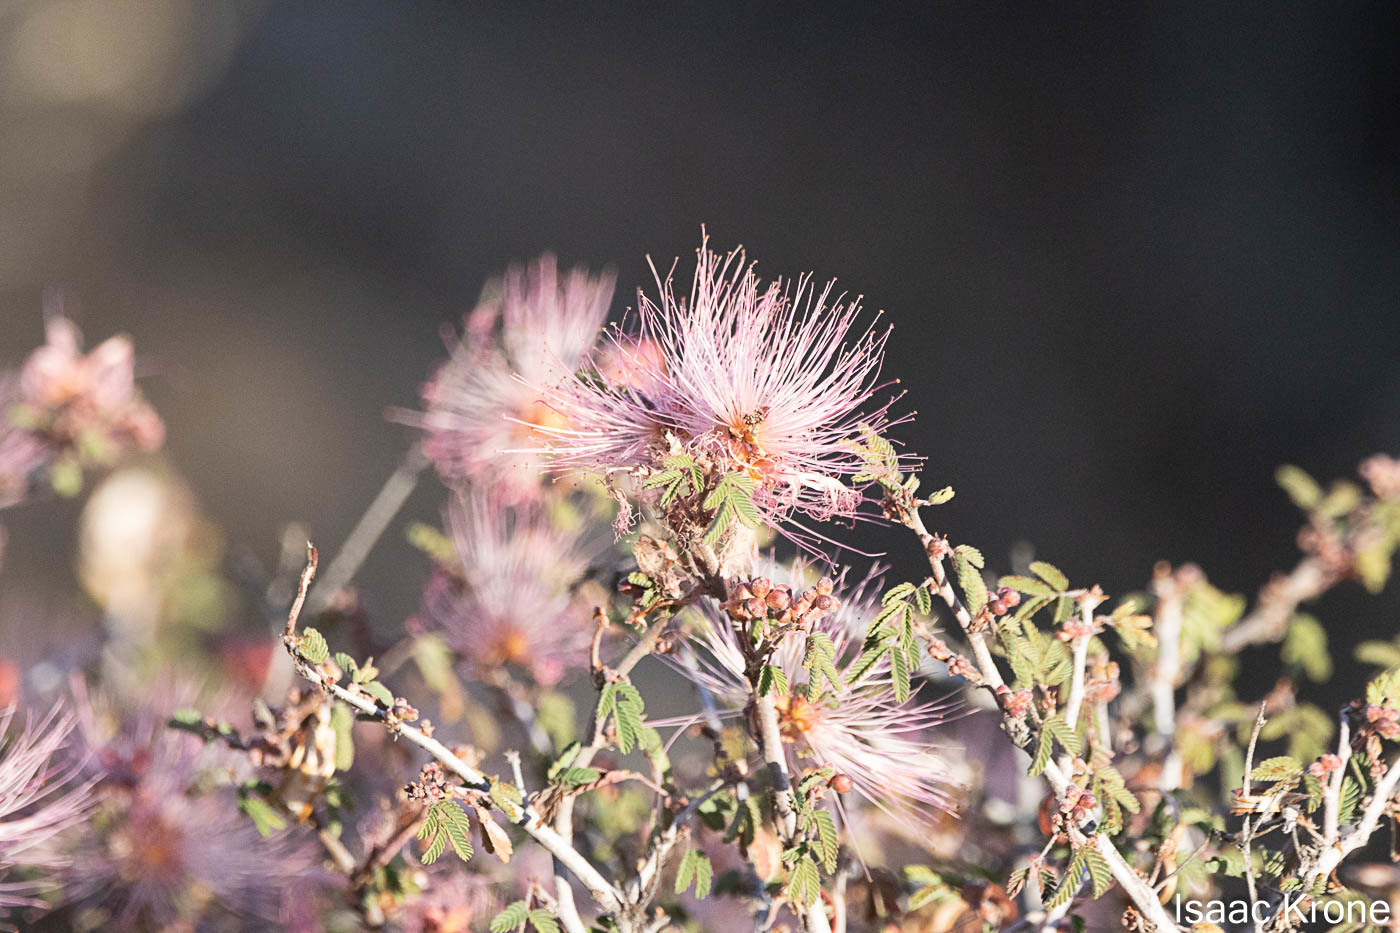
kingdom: Plantae
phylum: Tracheophyta
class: Magnoliopsida
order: Fabales
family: Fabaceae
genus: Calliandra
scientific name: Calliandra eriophylla
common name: Fairy-duster
